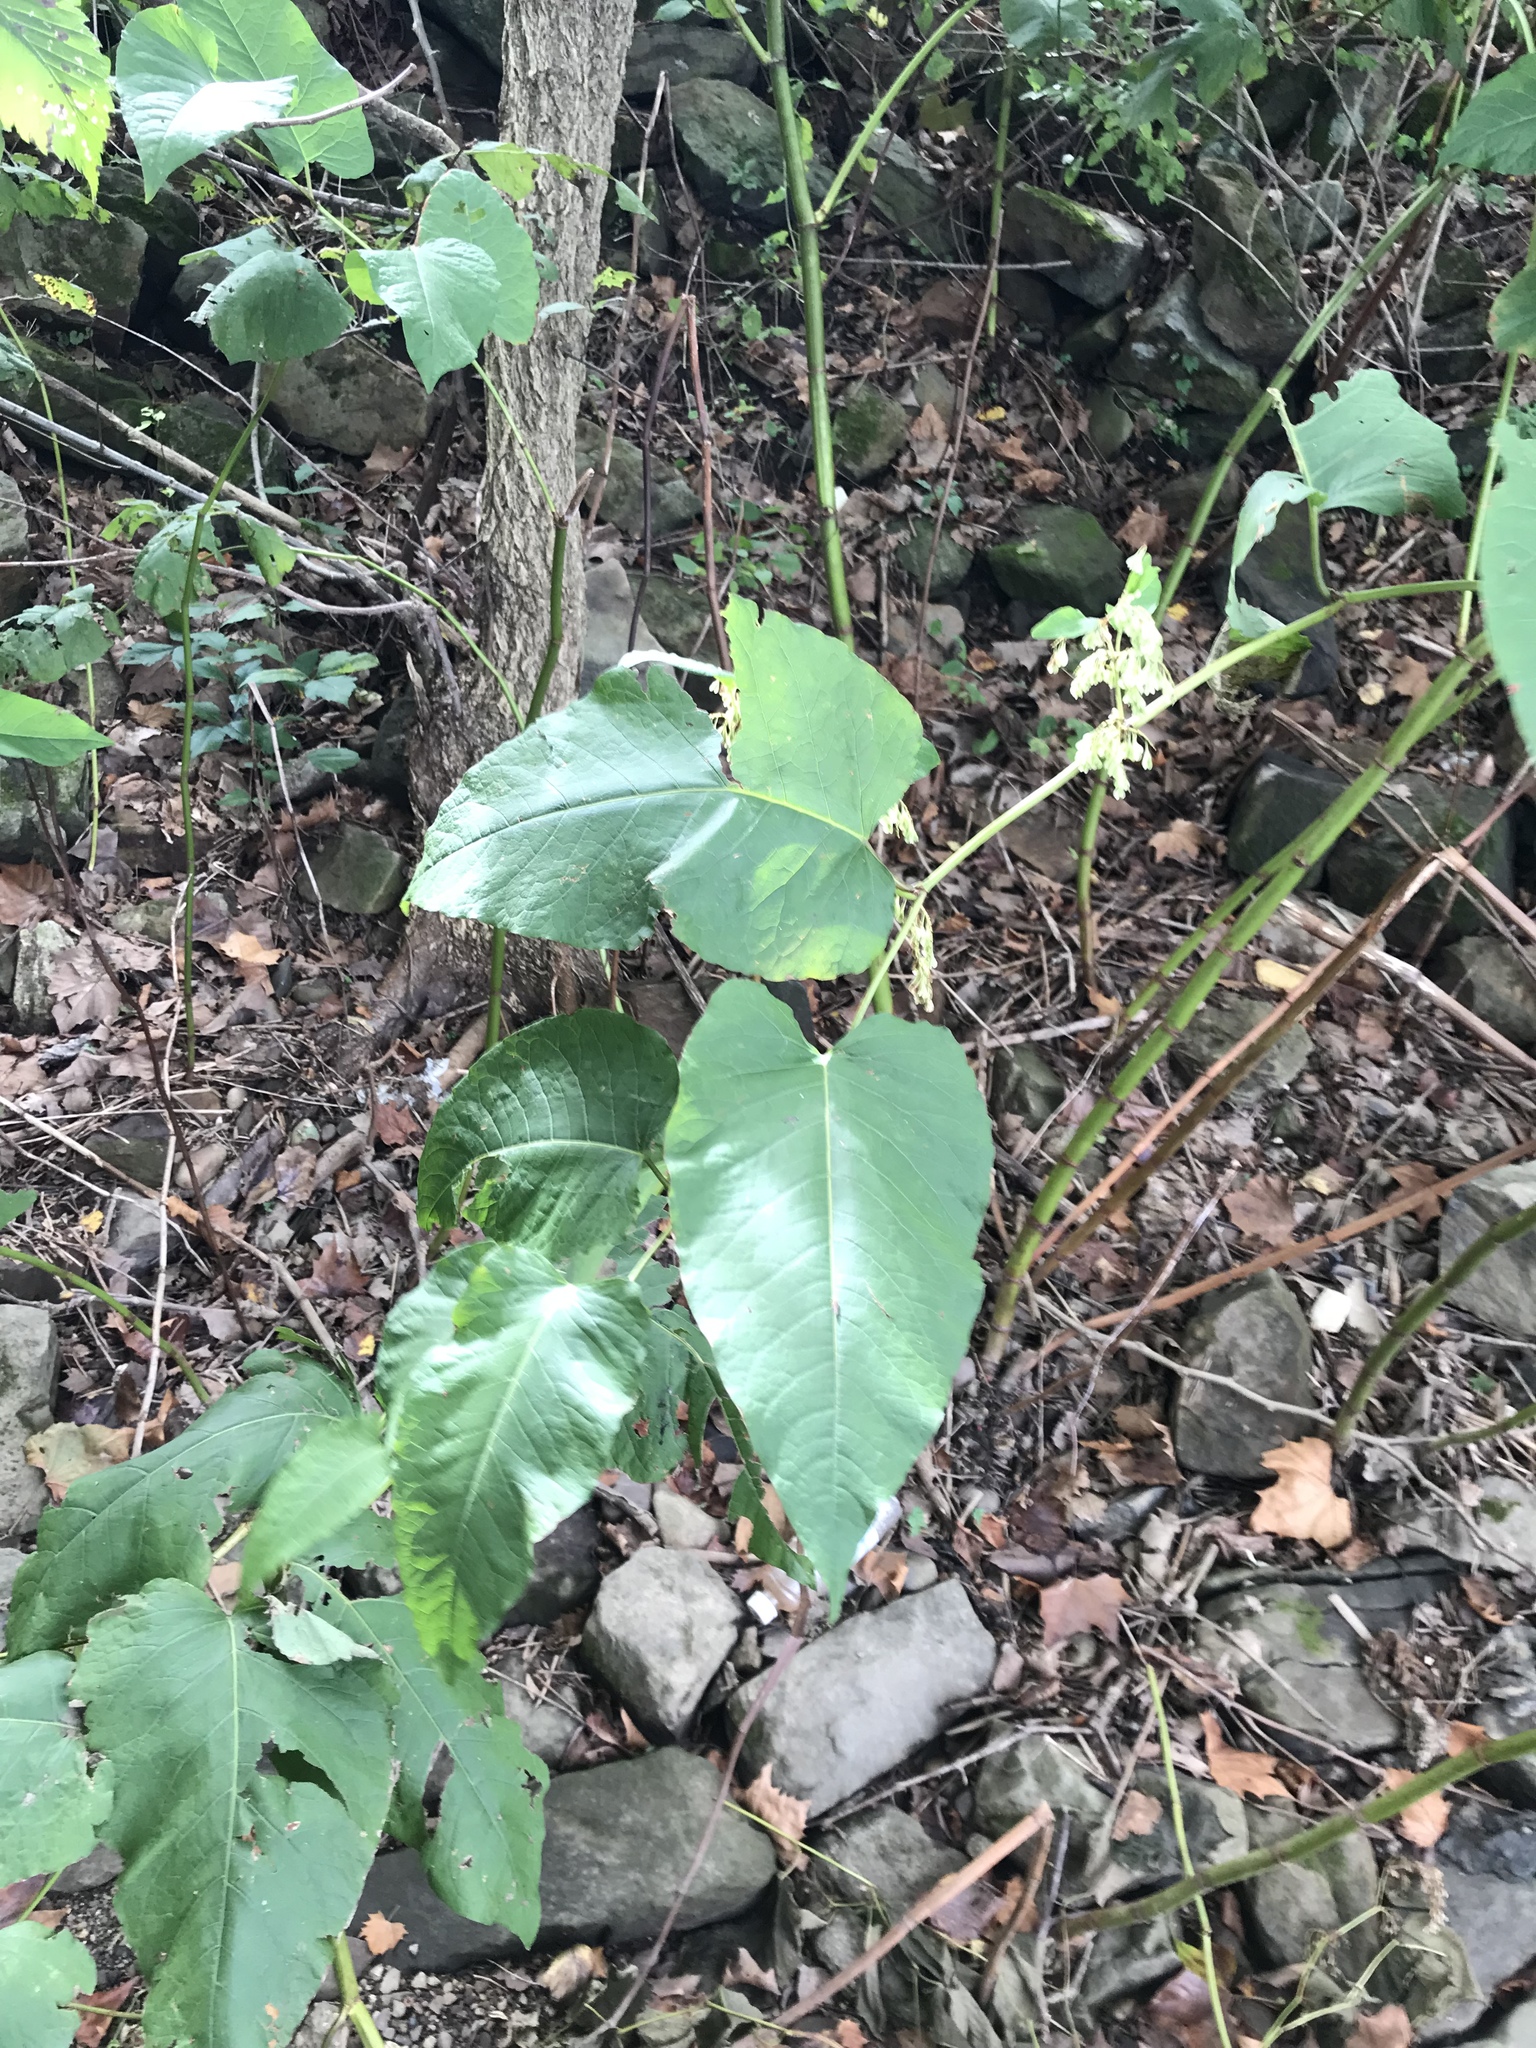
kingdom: Plantae
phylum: Tracheophyta
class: Magnoliopsida
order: Caryophyllales
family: Polygonaceae
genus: Reynoutria
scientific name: Reynoutria sachalinensis
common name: Giant knotweed
